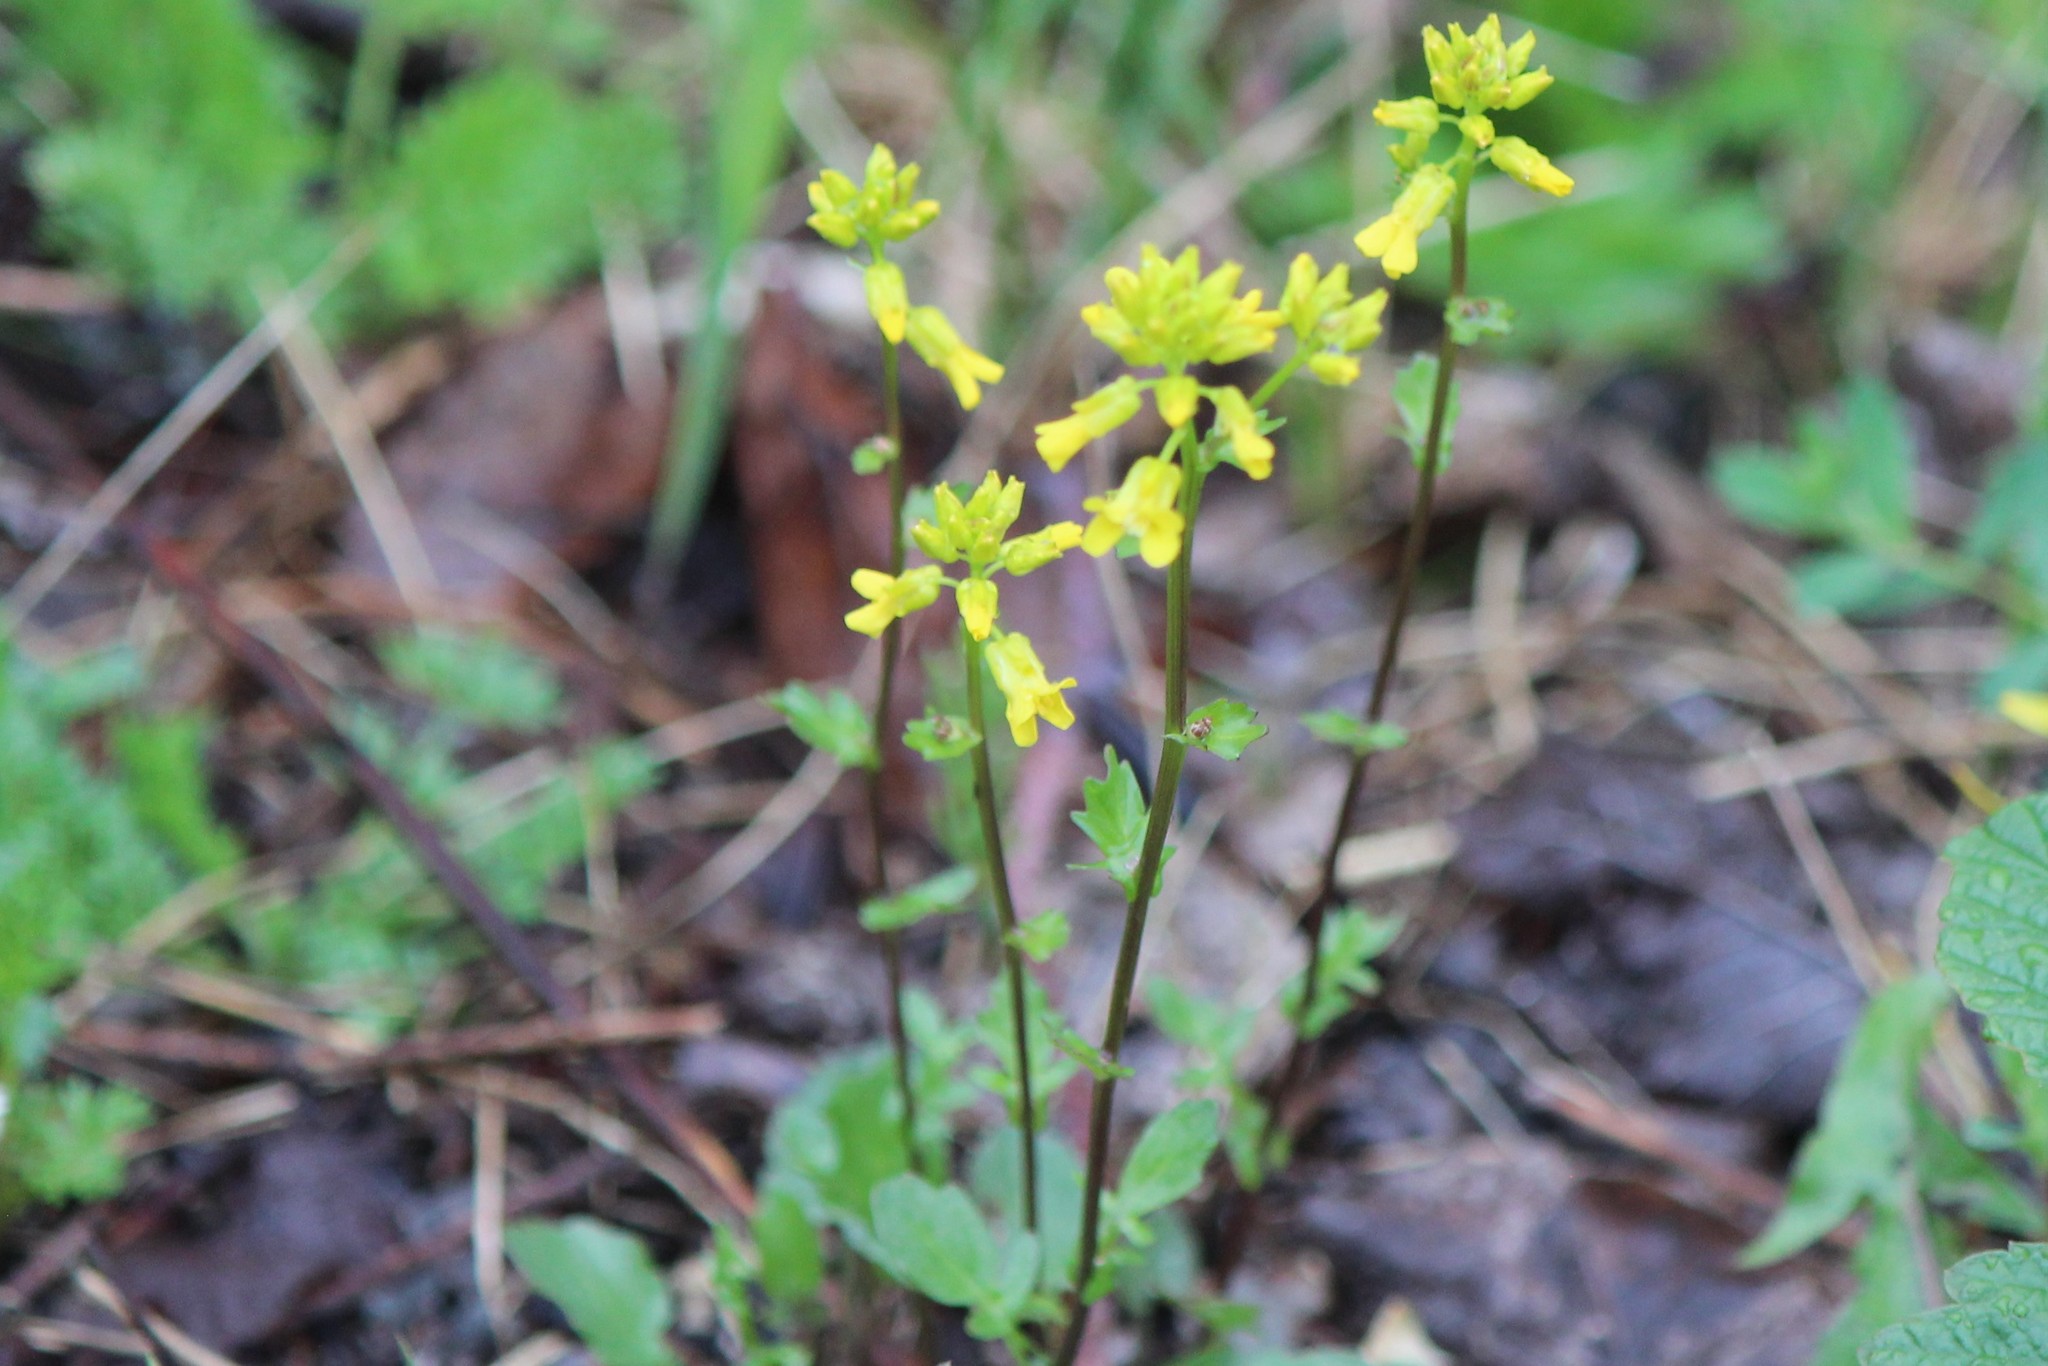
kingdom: Plantae
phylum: Tracheophyta
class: Magnoliopsida
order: Brassicales
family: Brassicaceae
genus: Barbarea
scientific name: Barbarea vulgaris
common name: Cressy-greens
